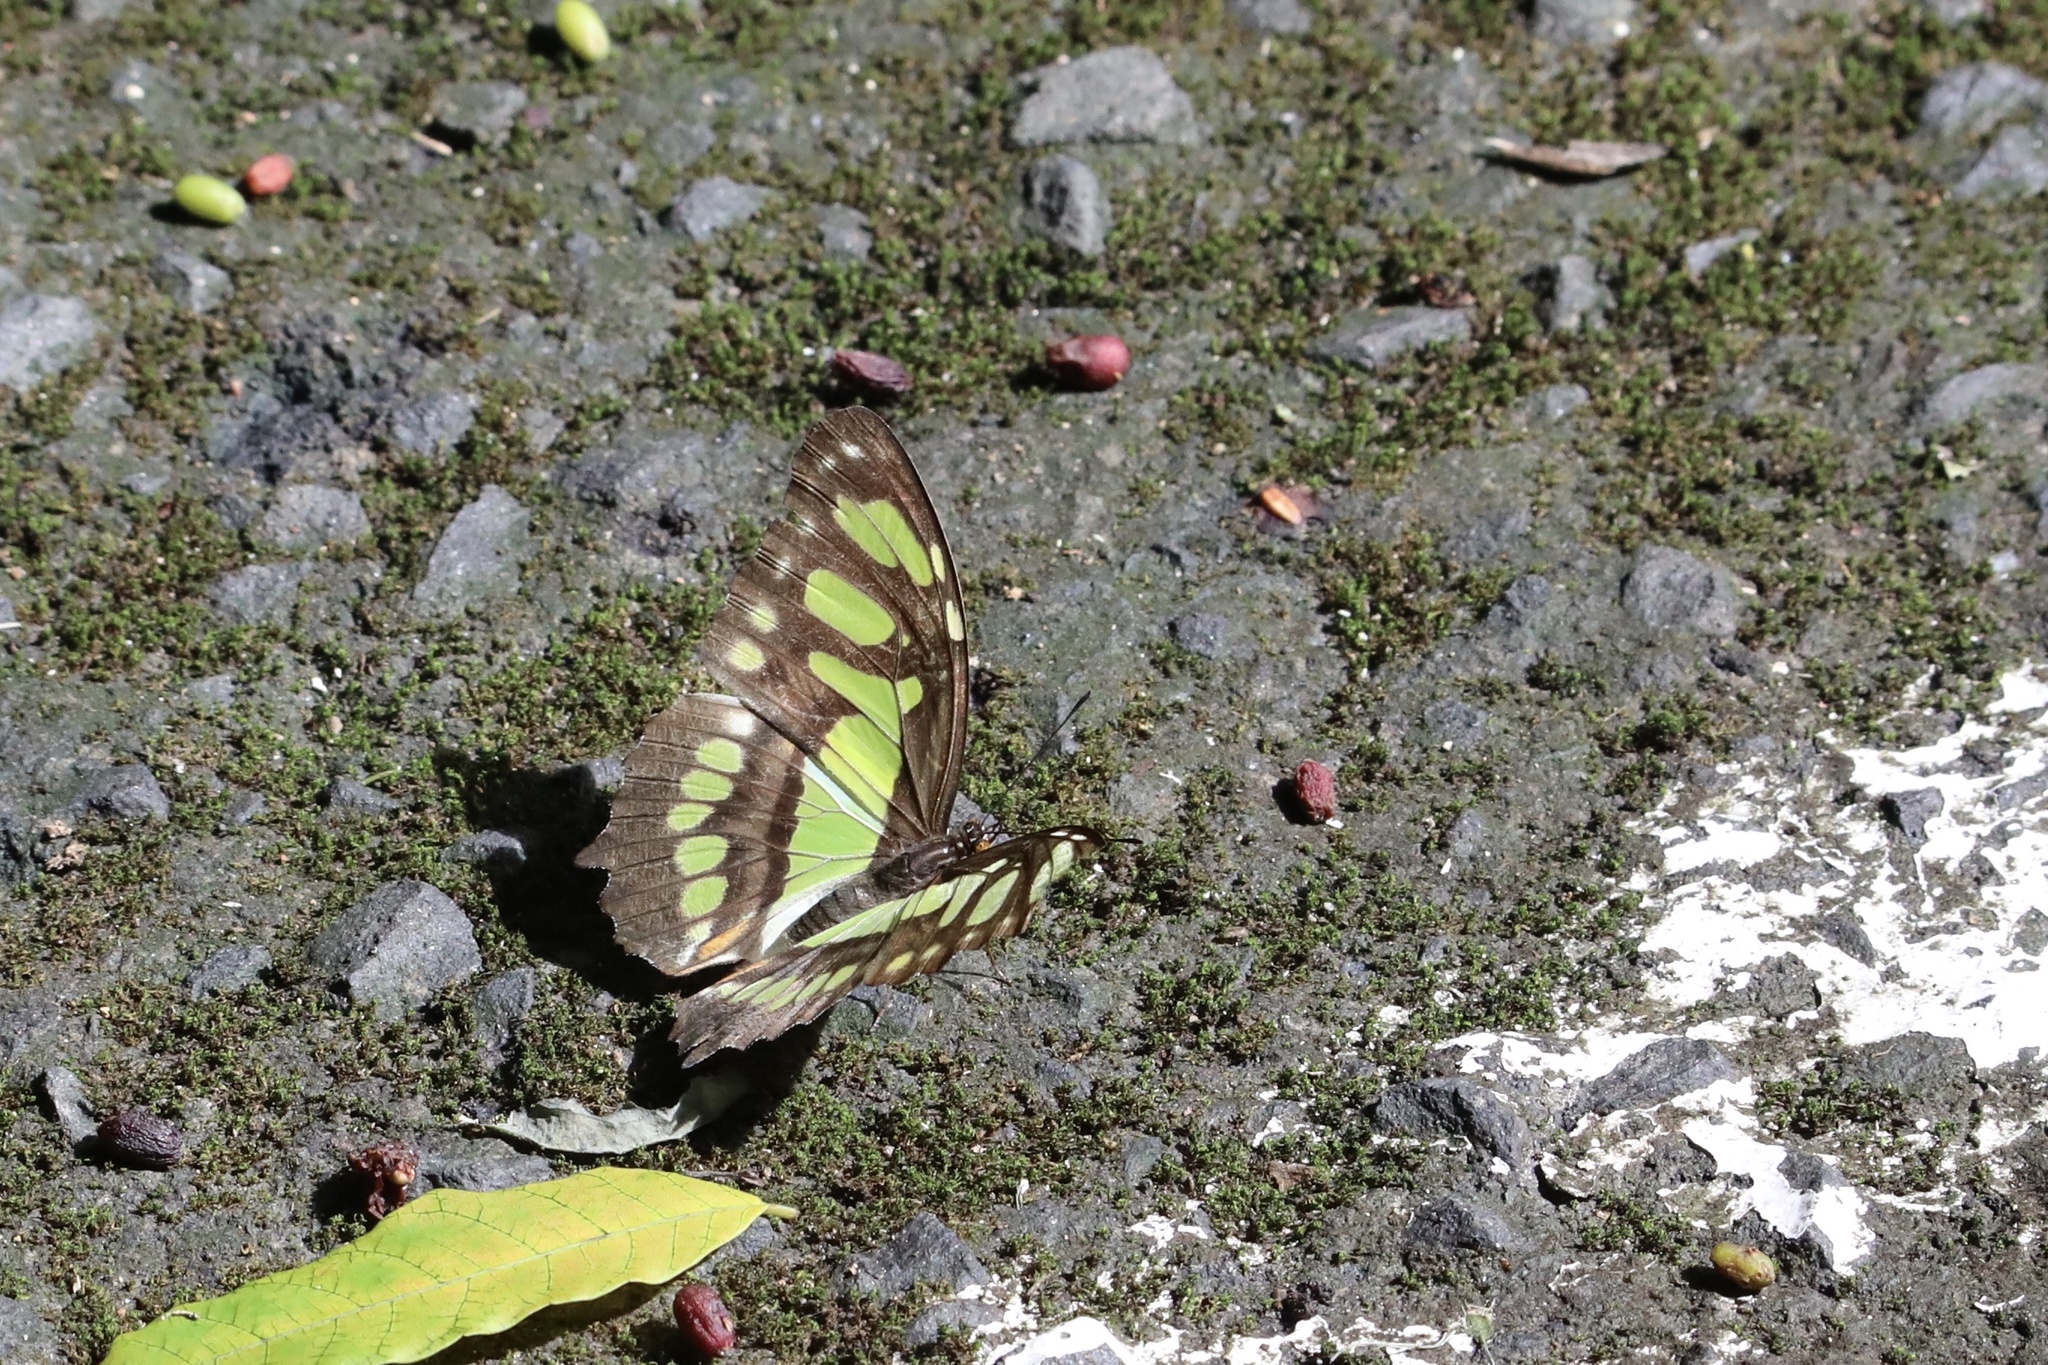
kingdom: Animalia
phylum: Arthropoda
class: Insecta
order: Lepidoptera
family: Nymphalidae
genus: Siproeta
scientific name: Siproeta stelenes
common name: Malachite
